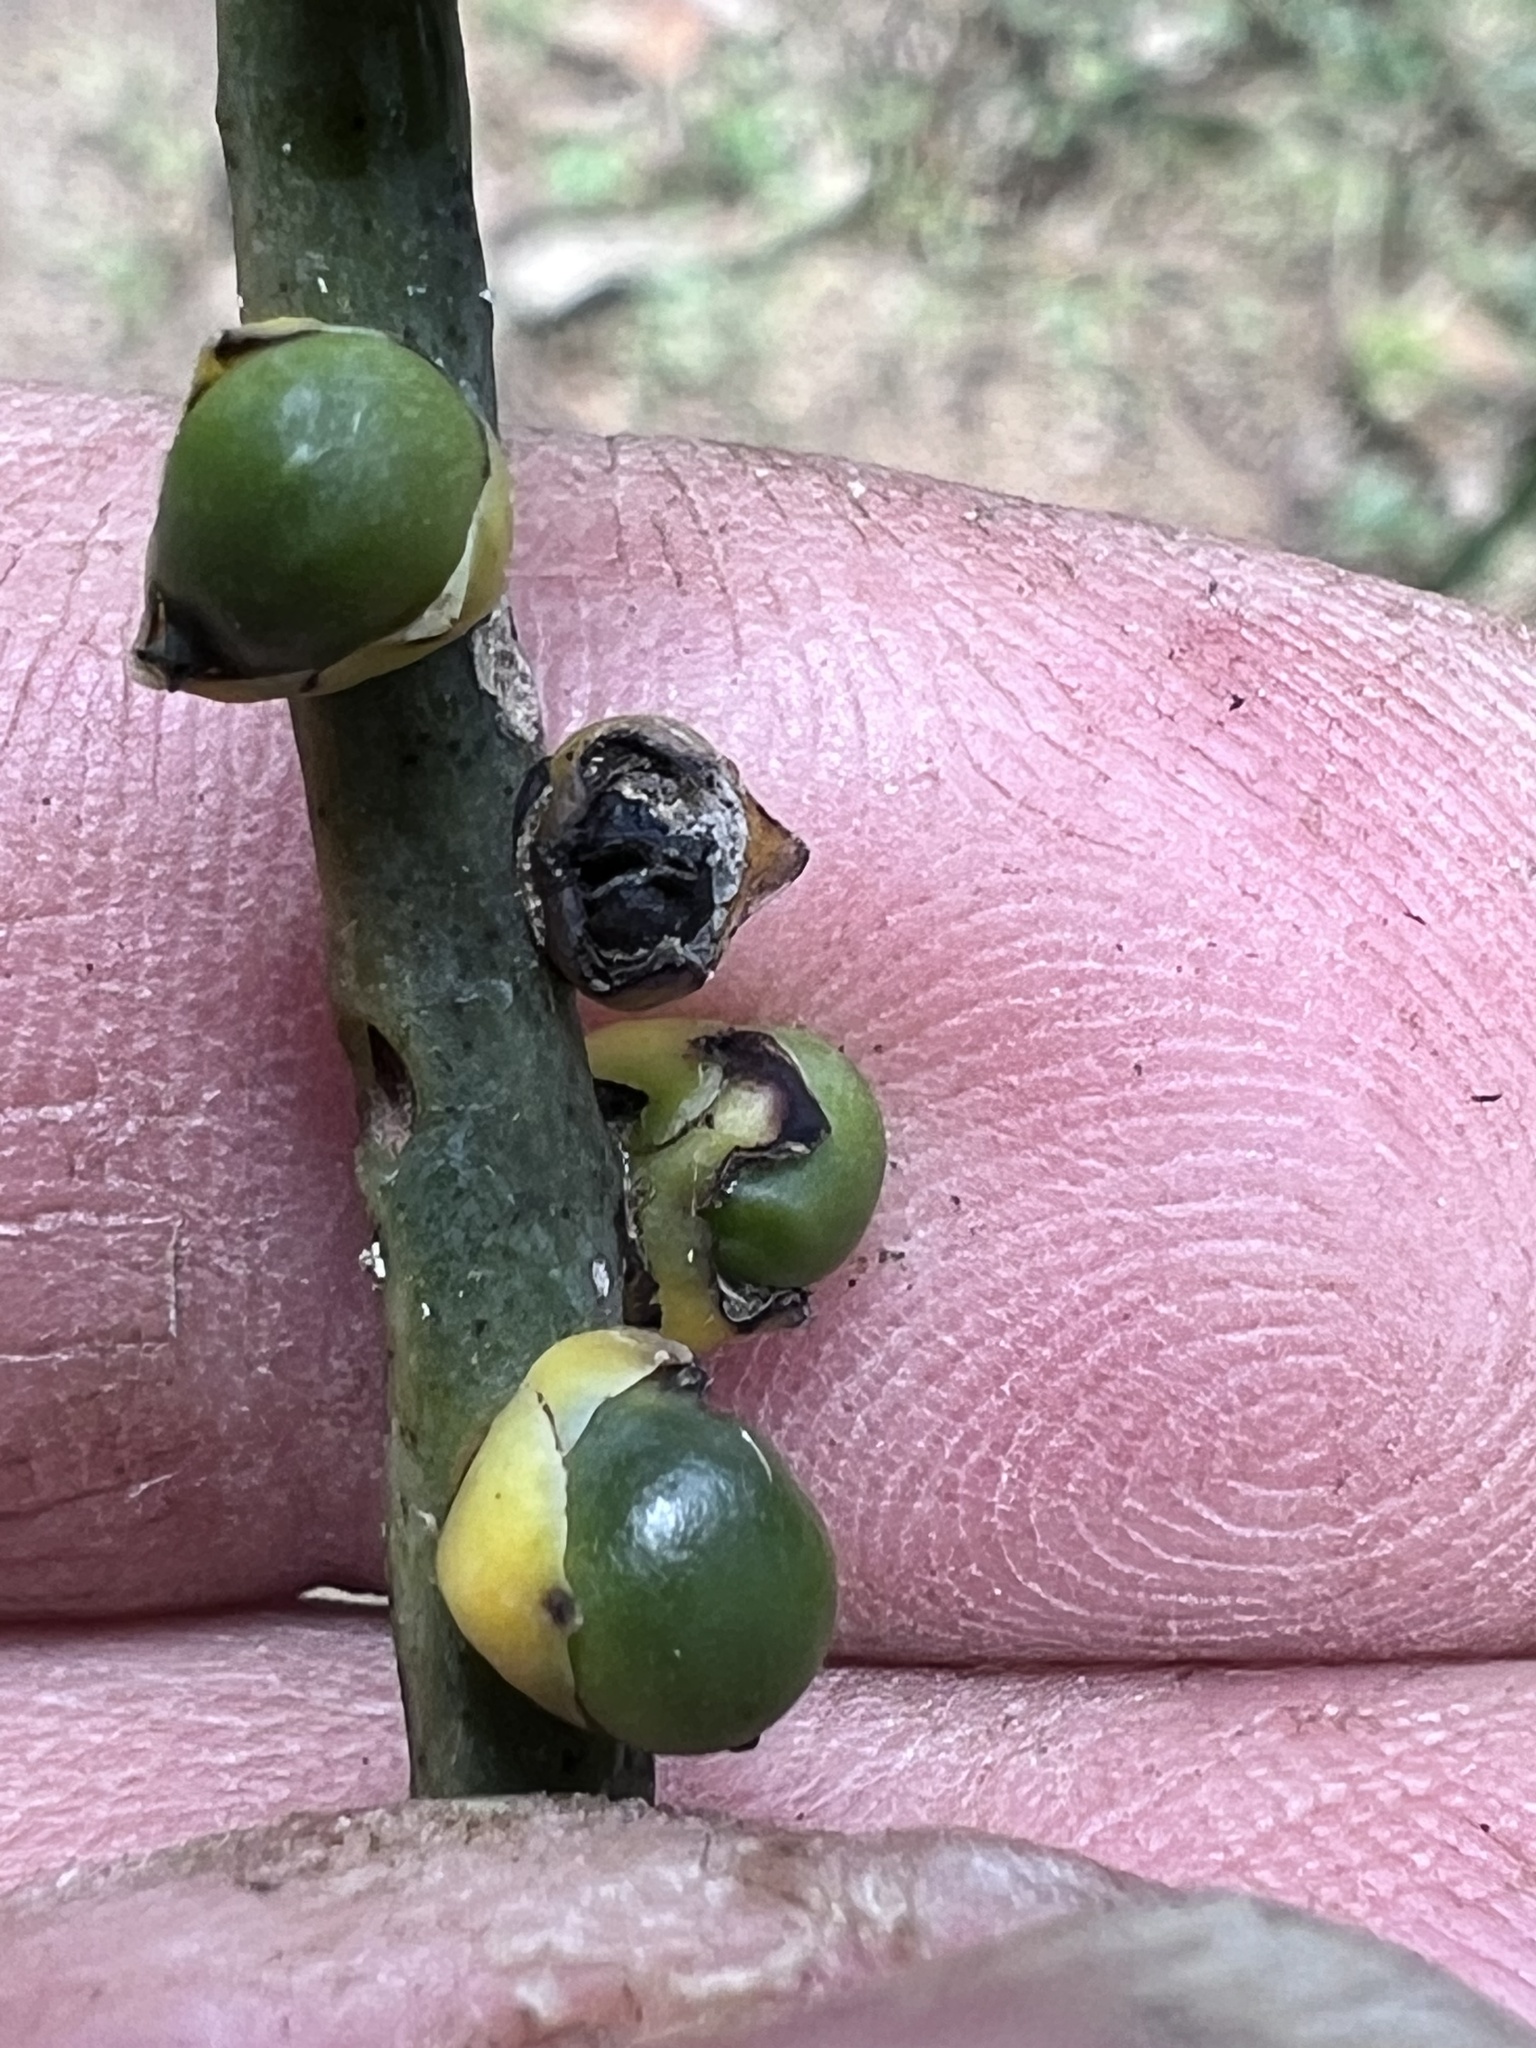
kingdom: Plantae
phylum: Tracheophyta
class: Liliopsida
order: Arecales
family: Arecaceae
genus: Chamaedorea
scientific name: Chamaedorea tepejilote
